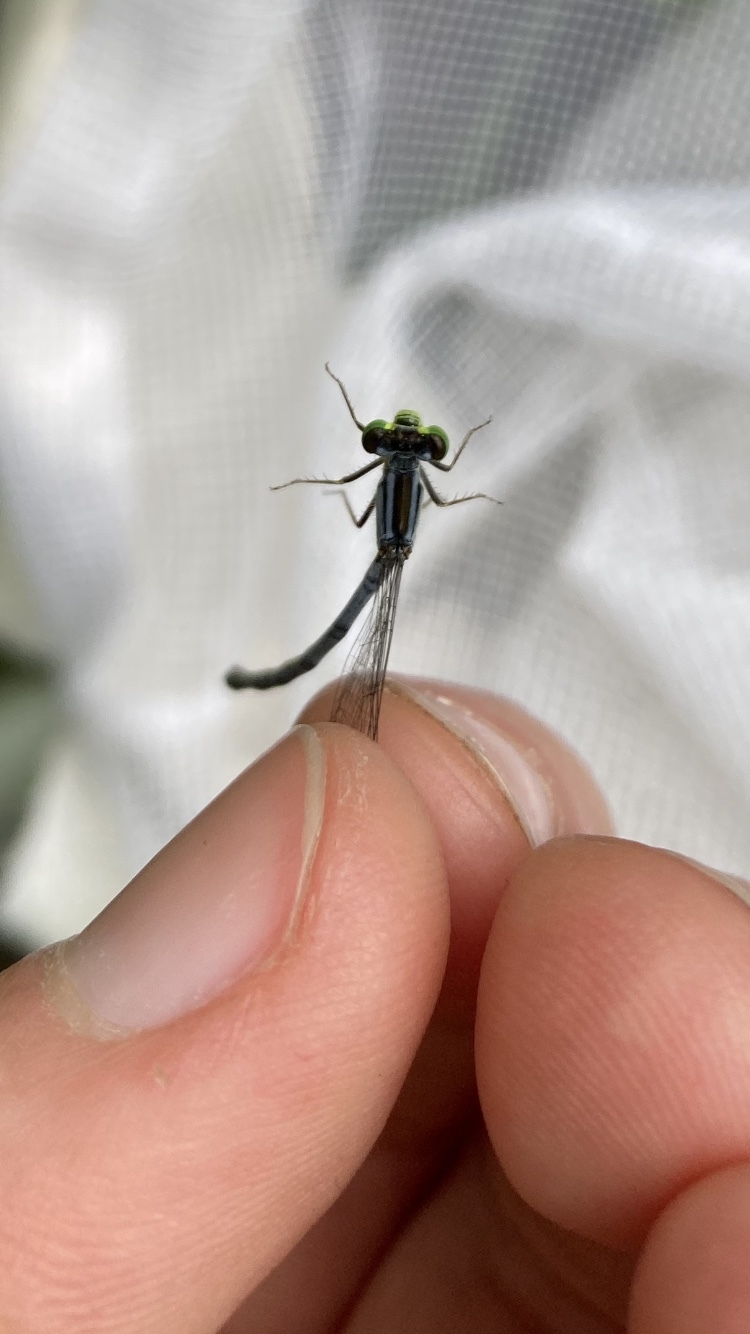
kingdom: Animalia
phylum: Arthropoda
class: Insecta
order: Odonata
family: Coenagrionidae
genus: Ischnura
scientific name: Ischnura verticalis
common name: Eastern forktail
